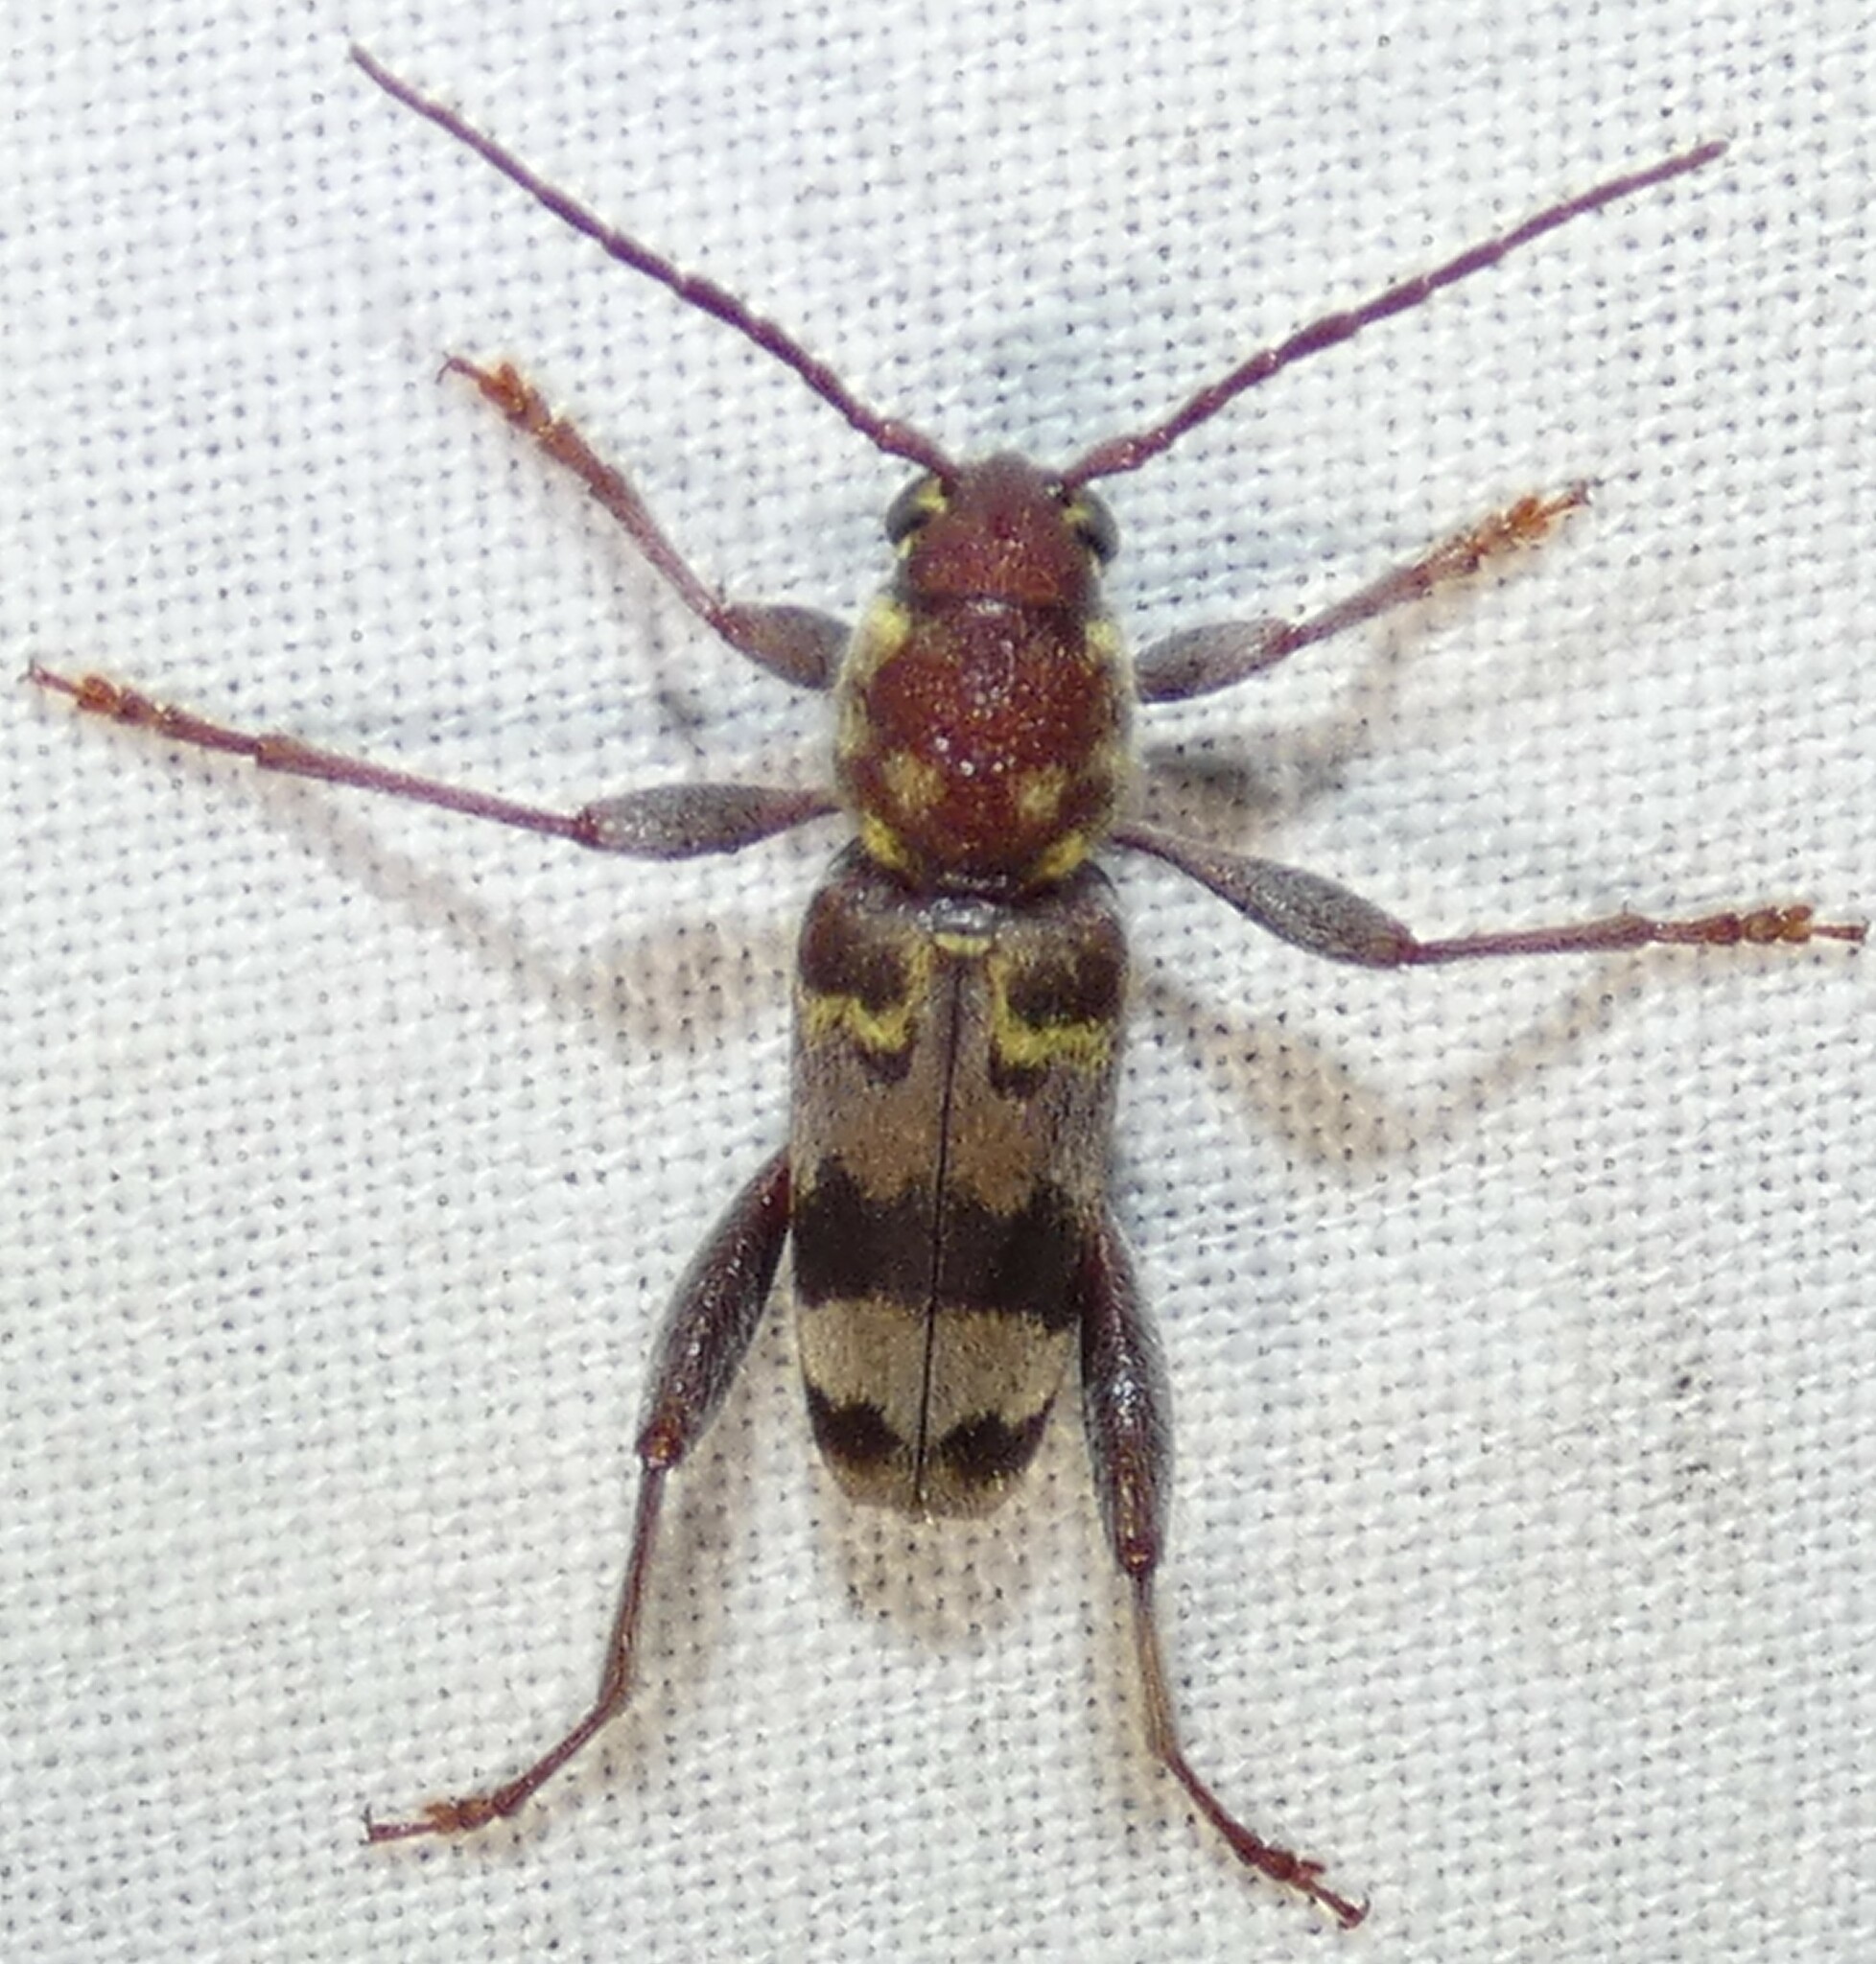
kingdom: Animalia
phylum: Arthropoda
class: Insecta
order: Coleoptera
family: Cerambycidae
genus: Xylotrechus
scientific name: Xylotrechus colonus
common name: Long-horned beetle
